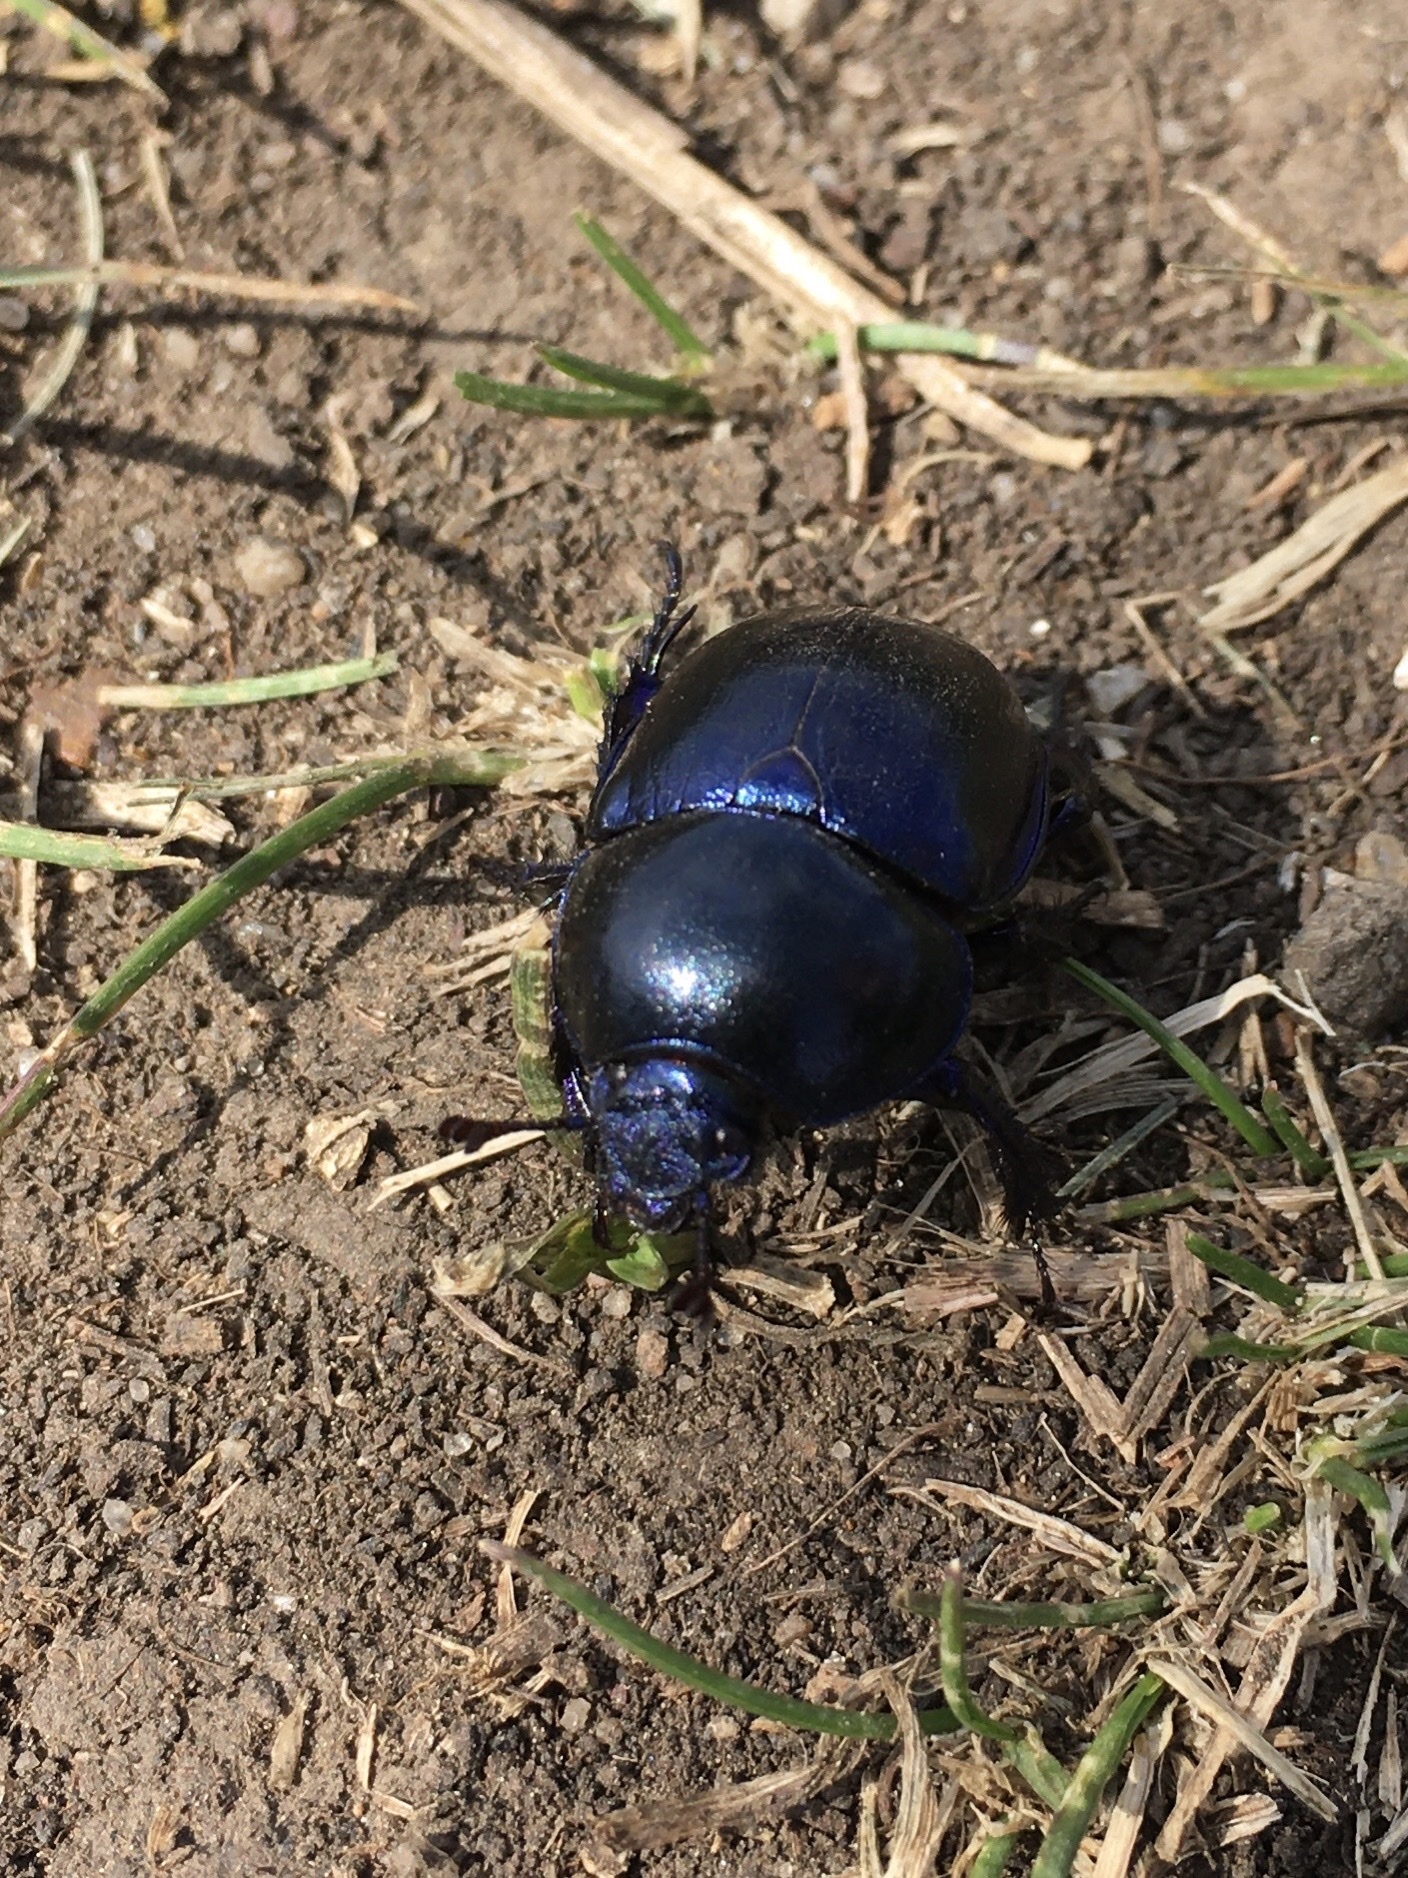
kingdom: Animalia
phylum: Arthropoda
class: Insecta
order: Coleoptera
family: Geotrupidae
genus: Trypocopris
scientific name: Trypocopris vernalis
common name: Spring dumbledor
